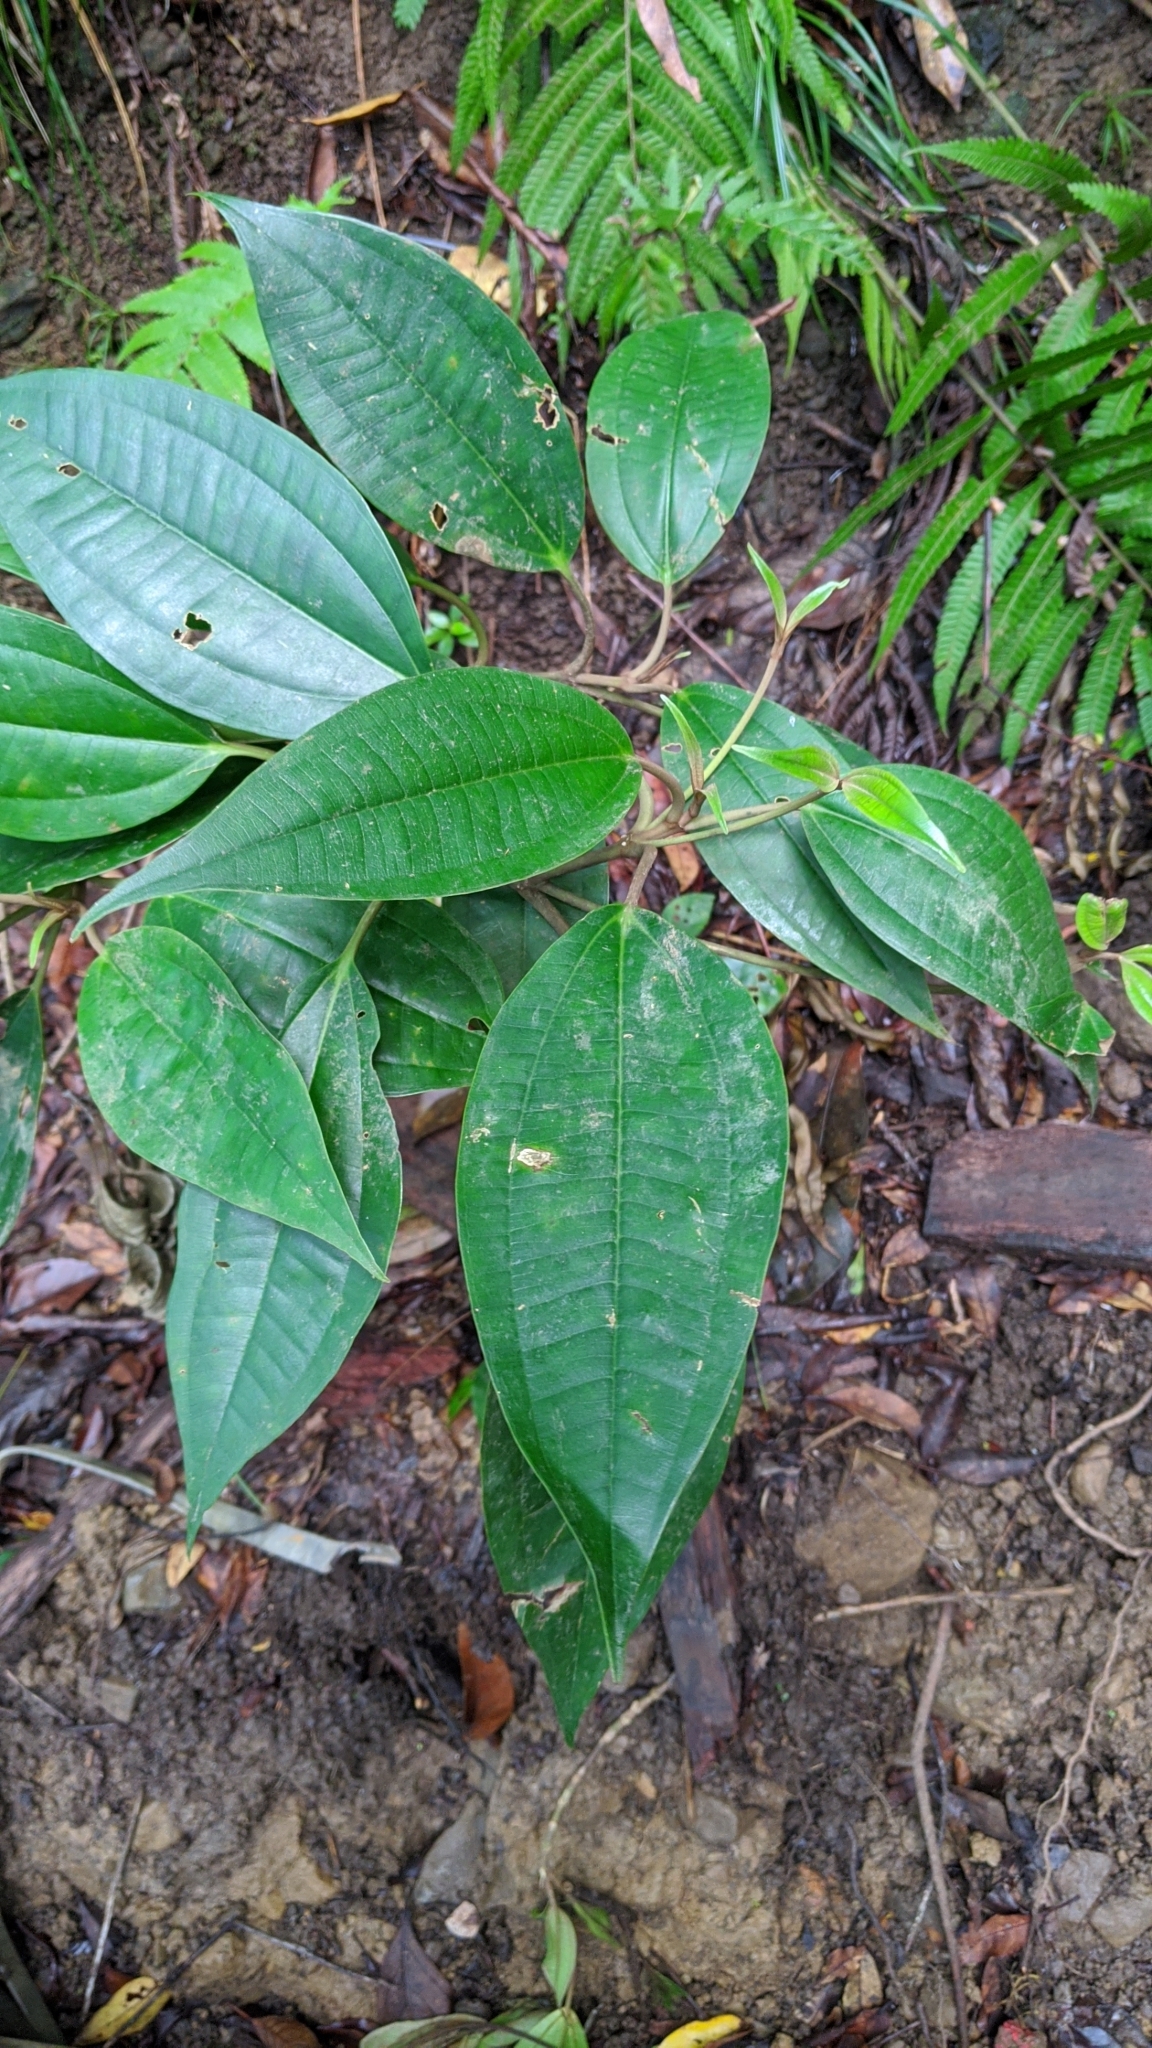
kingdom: Plantae
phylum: Tracheophyta
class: Magnoliopsida
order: Myrtales
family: Melastomataceae
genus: Astronia
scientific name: Astronia ferruginea
